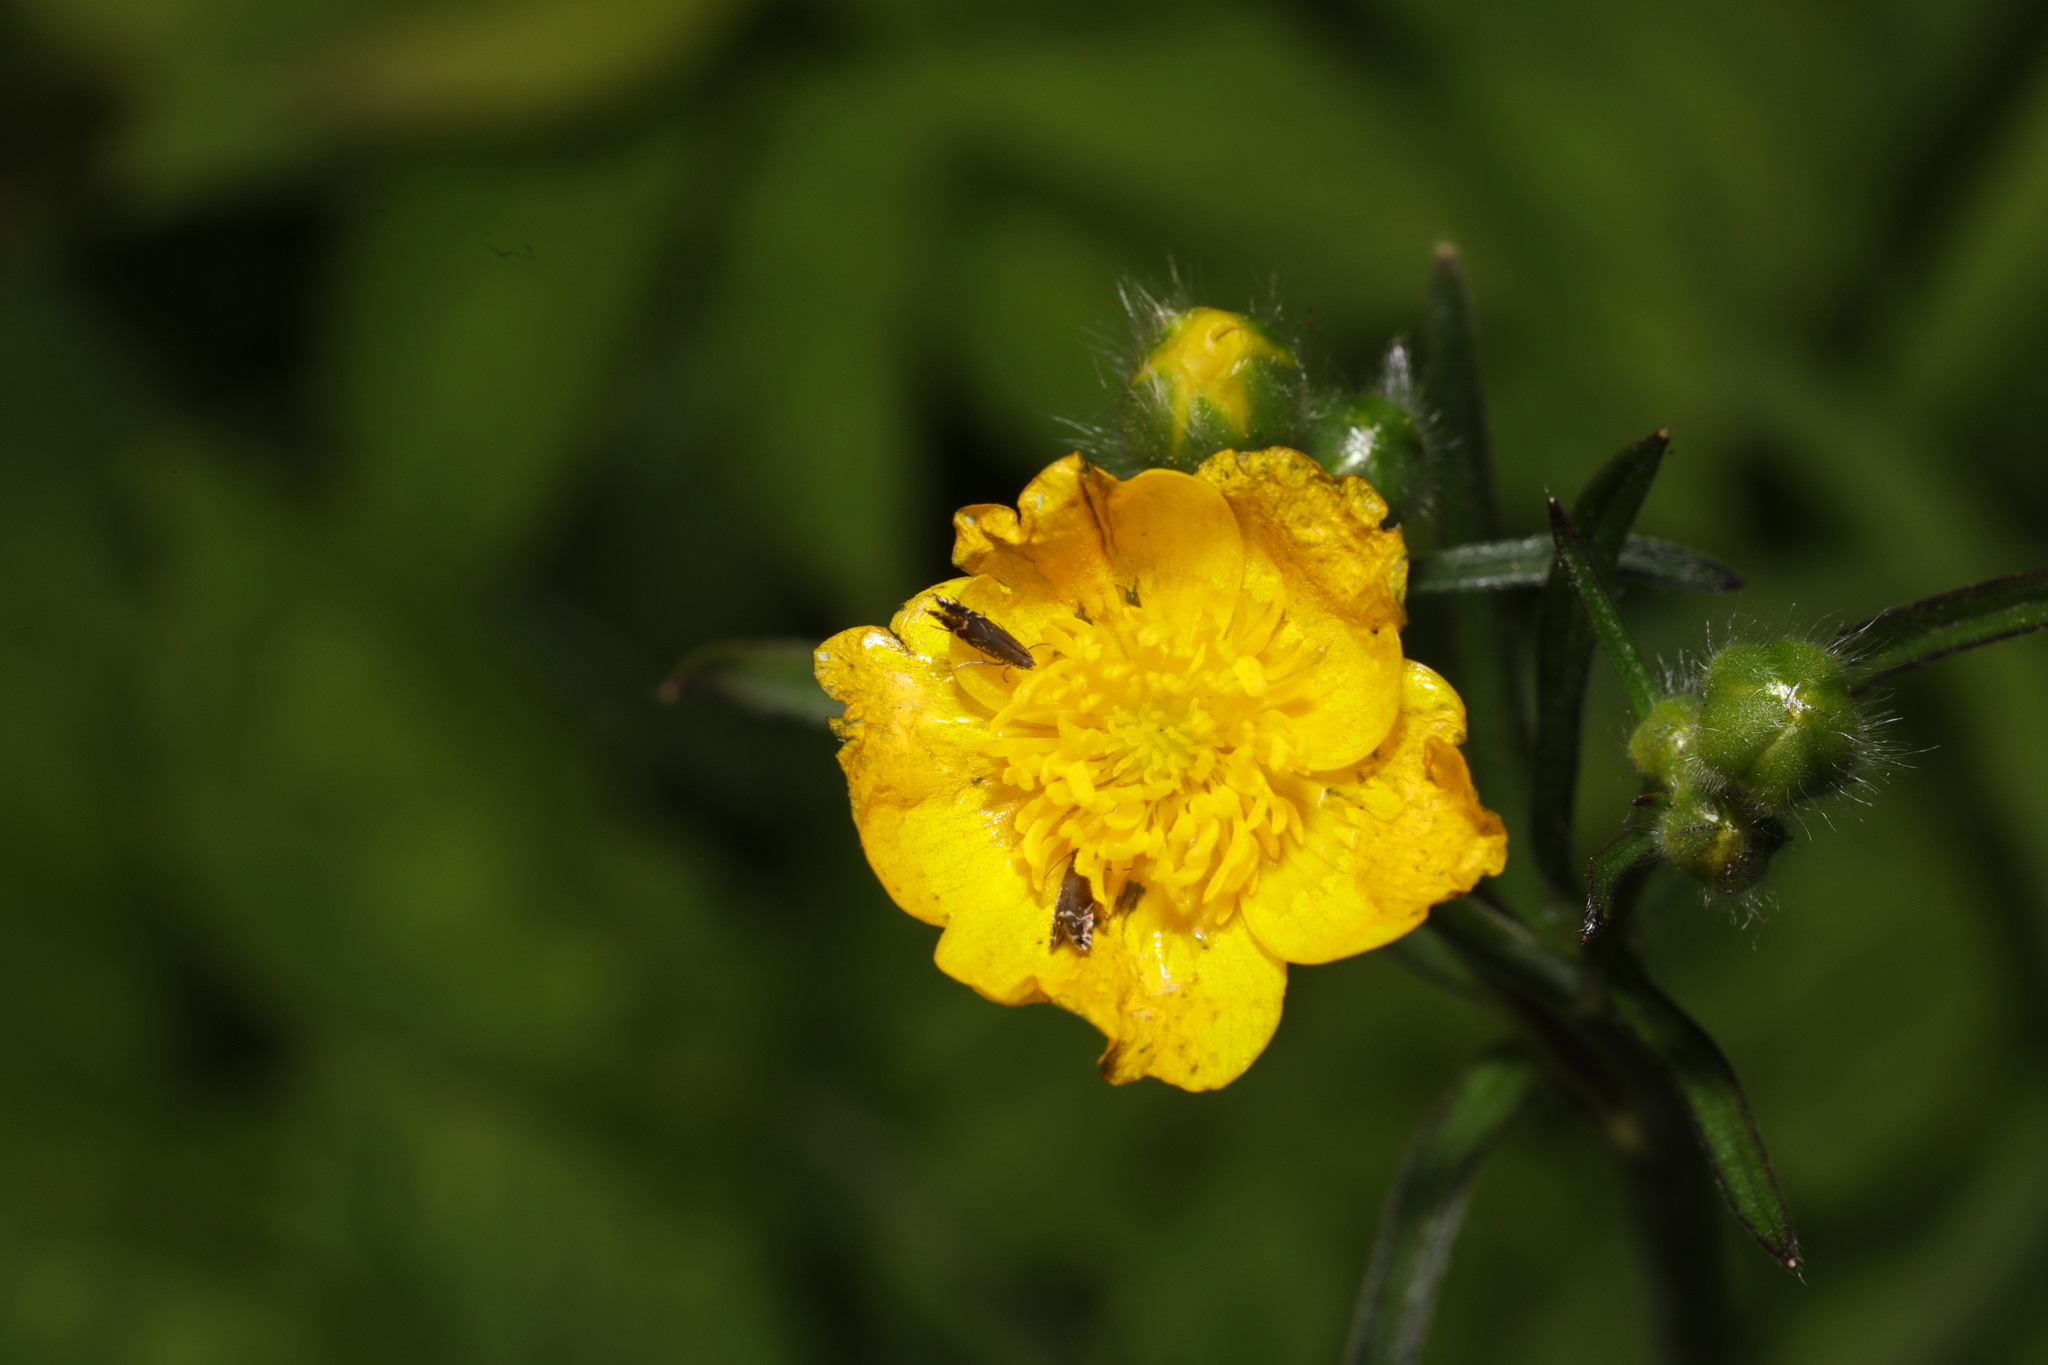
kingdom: Animalia
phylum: Arthropoda
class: Insecta
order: Lepidoptera
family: Glyphipterigidae
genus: Glyphipterix
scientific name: Glyphipterix simpliciella
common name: Cocksfoot moth
